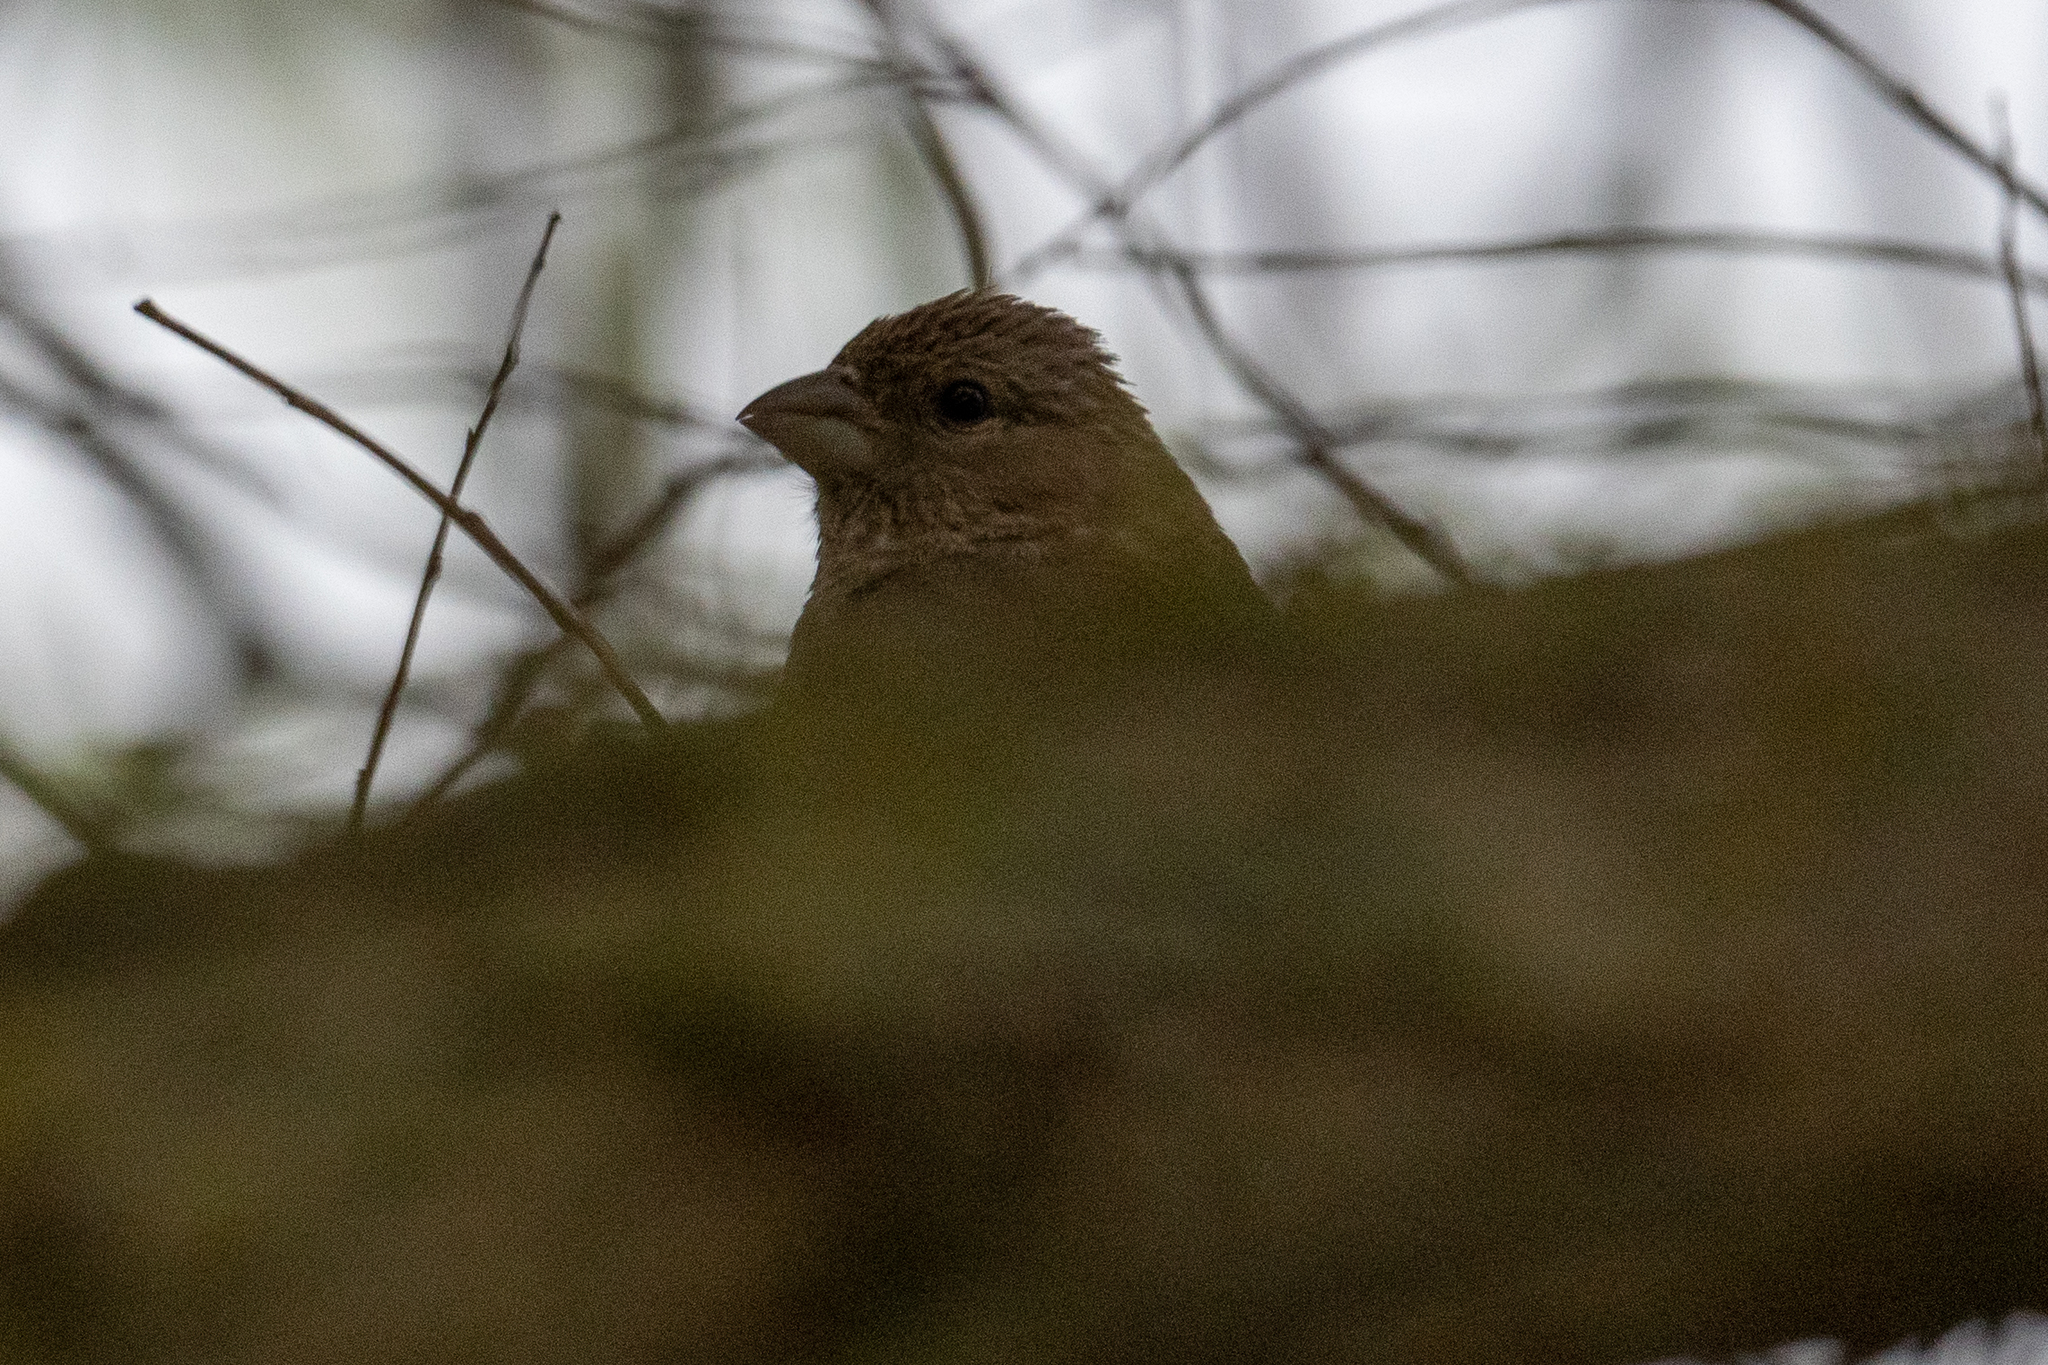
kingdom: Animalia
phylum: Chordata
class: Aves
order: Passeriformes
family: Fringillidae
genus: Haemorhous
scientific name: Haemorhous mexicanus
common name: House finch
